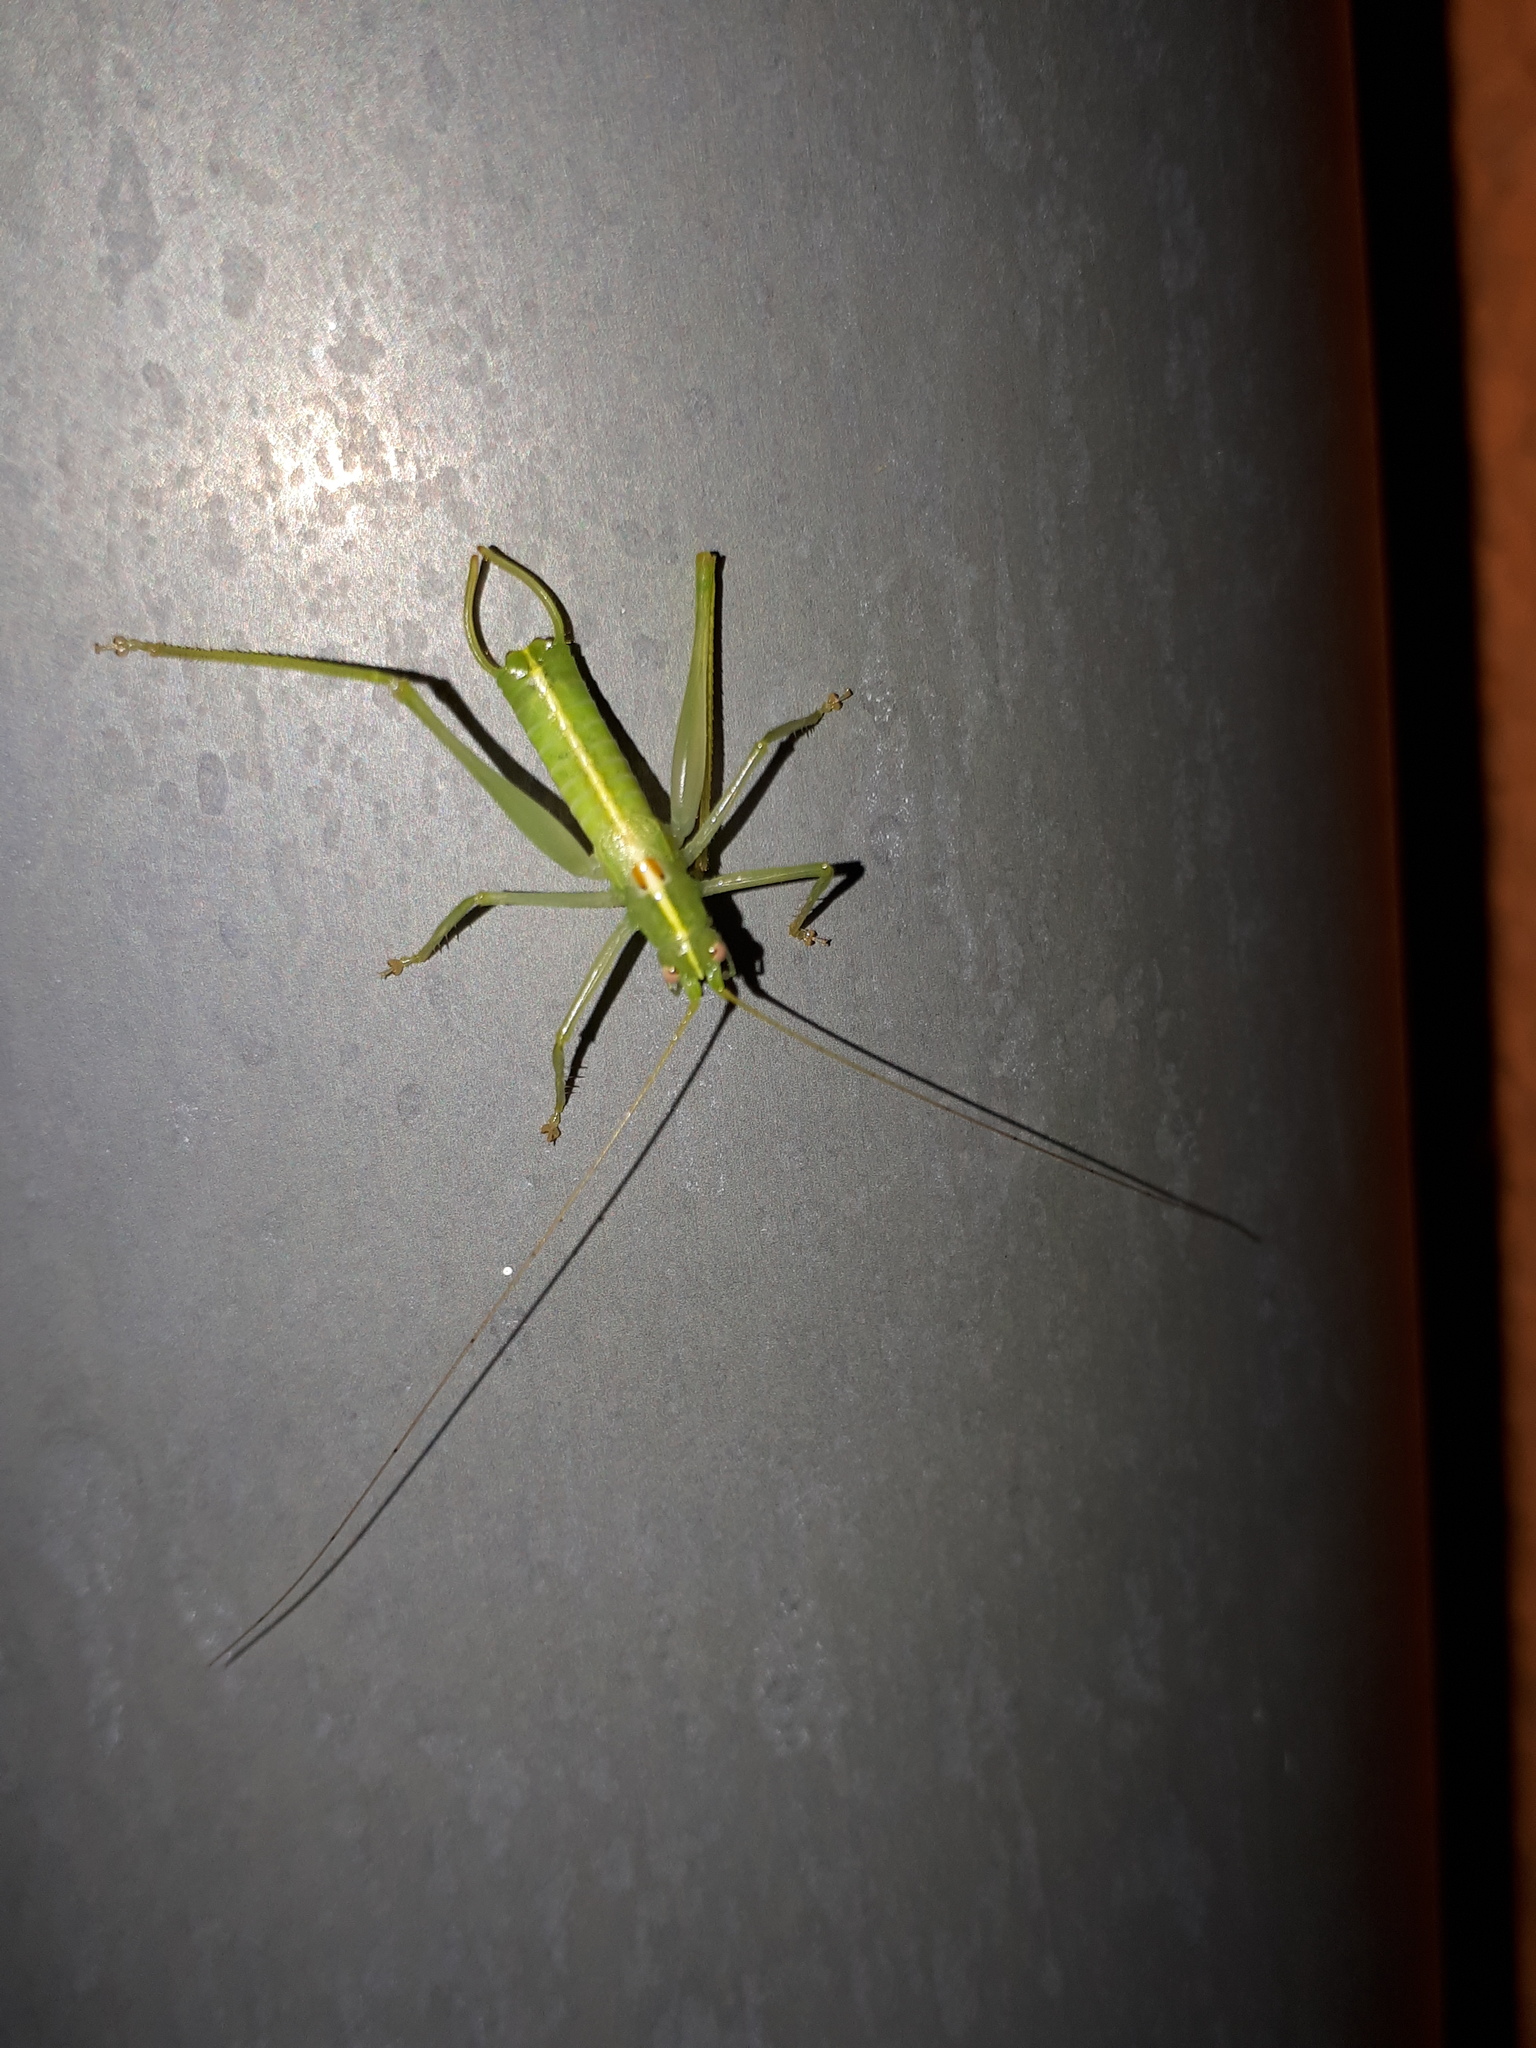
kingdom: Animalia
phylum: Arthropoda
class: Insecta
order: Orthoptera
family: Tettigoniidae
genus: Meconema
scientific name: Meconema meridionale
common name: Southern oak bush-cricket
